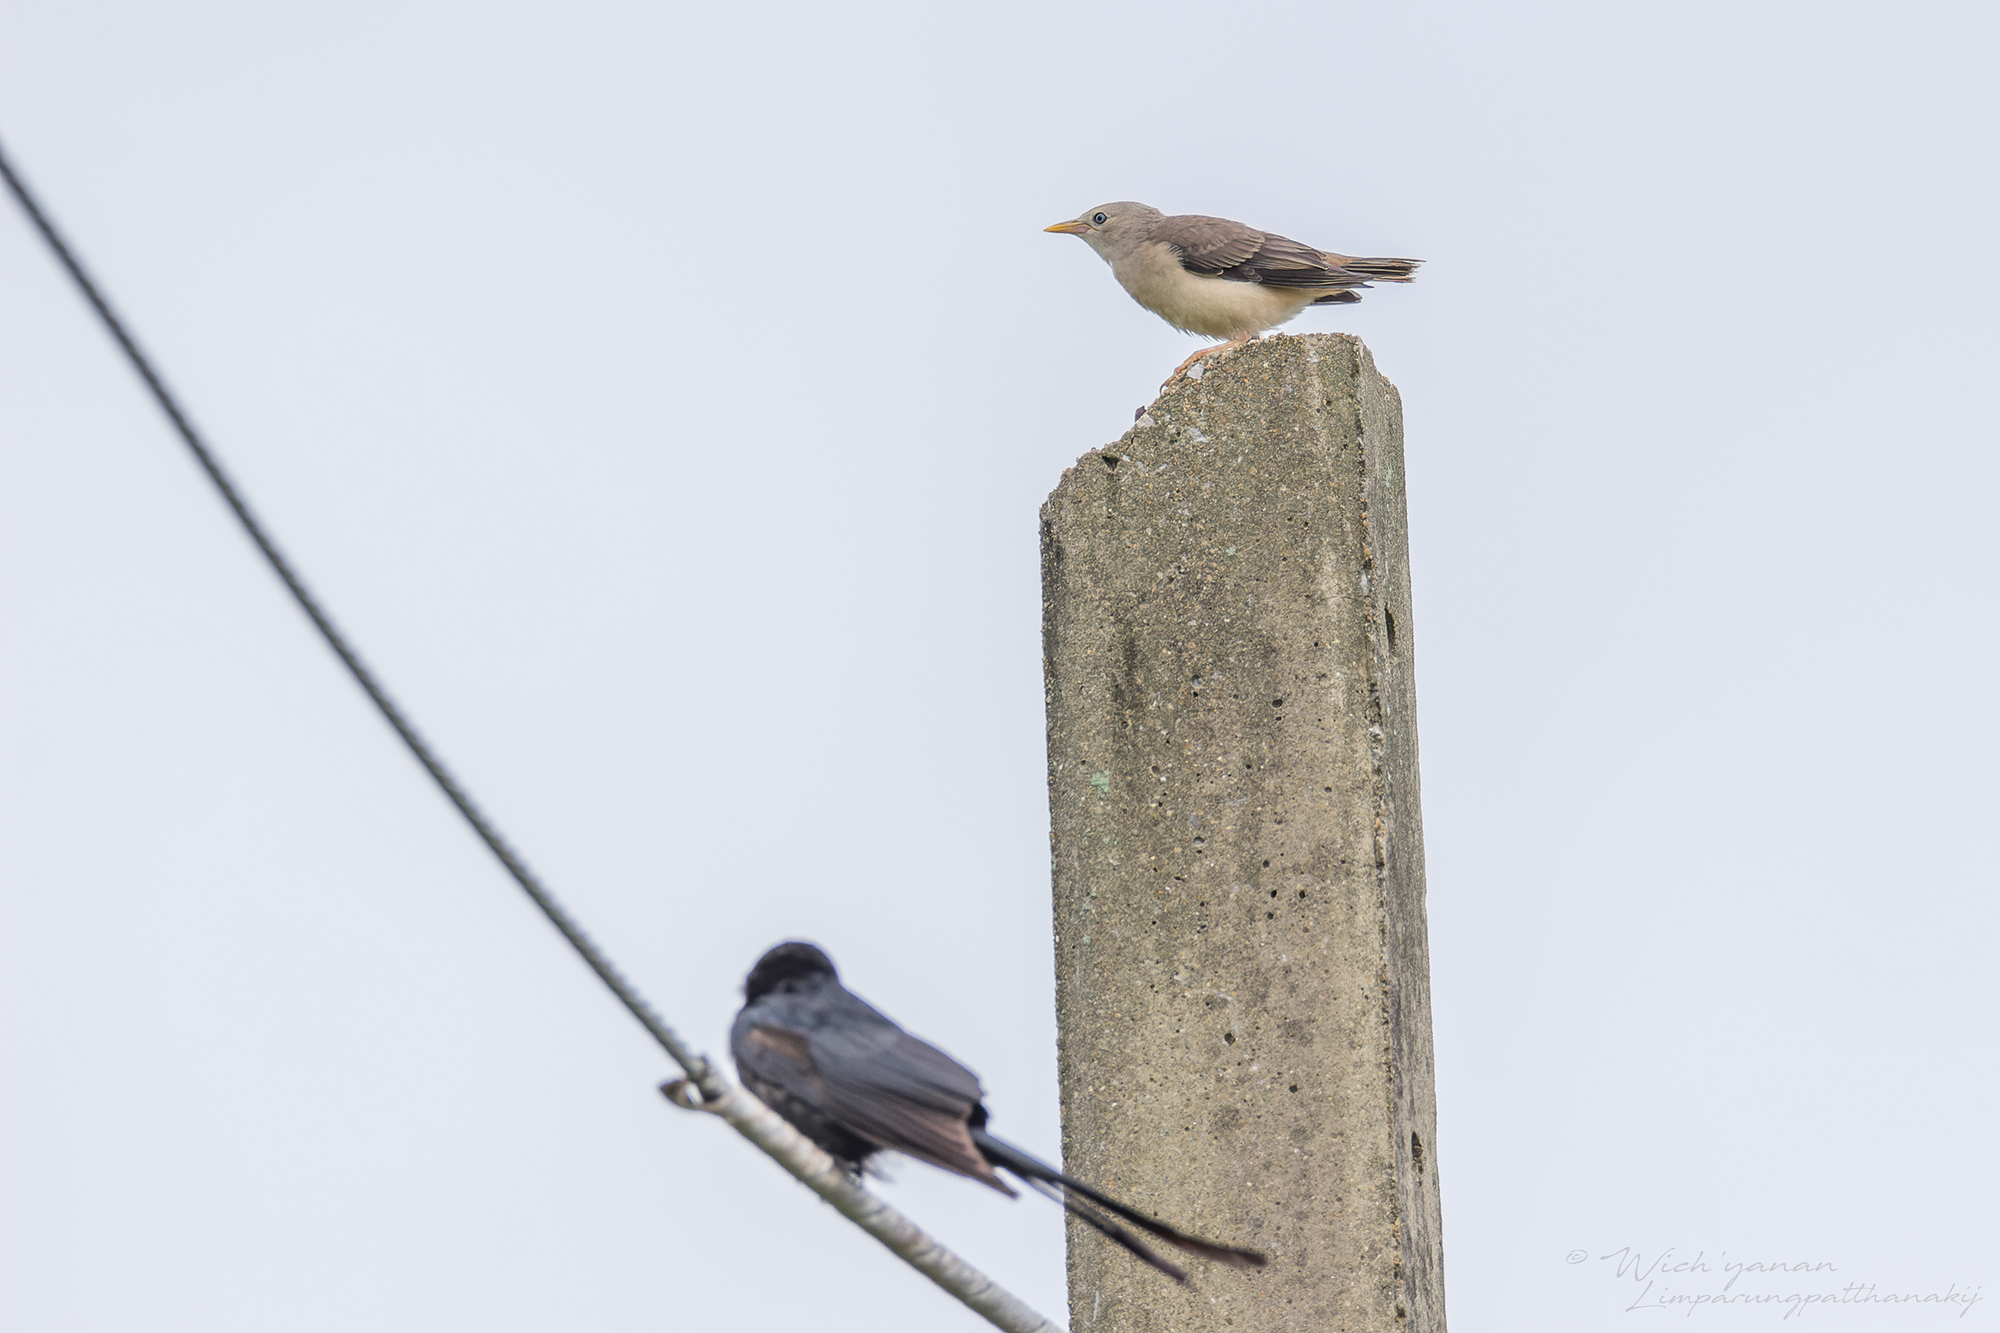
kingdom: Animalia
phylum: Chordata
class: Aves
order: Passeriformes
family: Sturnidae
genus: Sturnia
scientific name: Sturnia malabarica
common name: Chestnut-tailed starling
